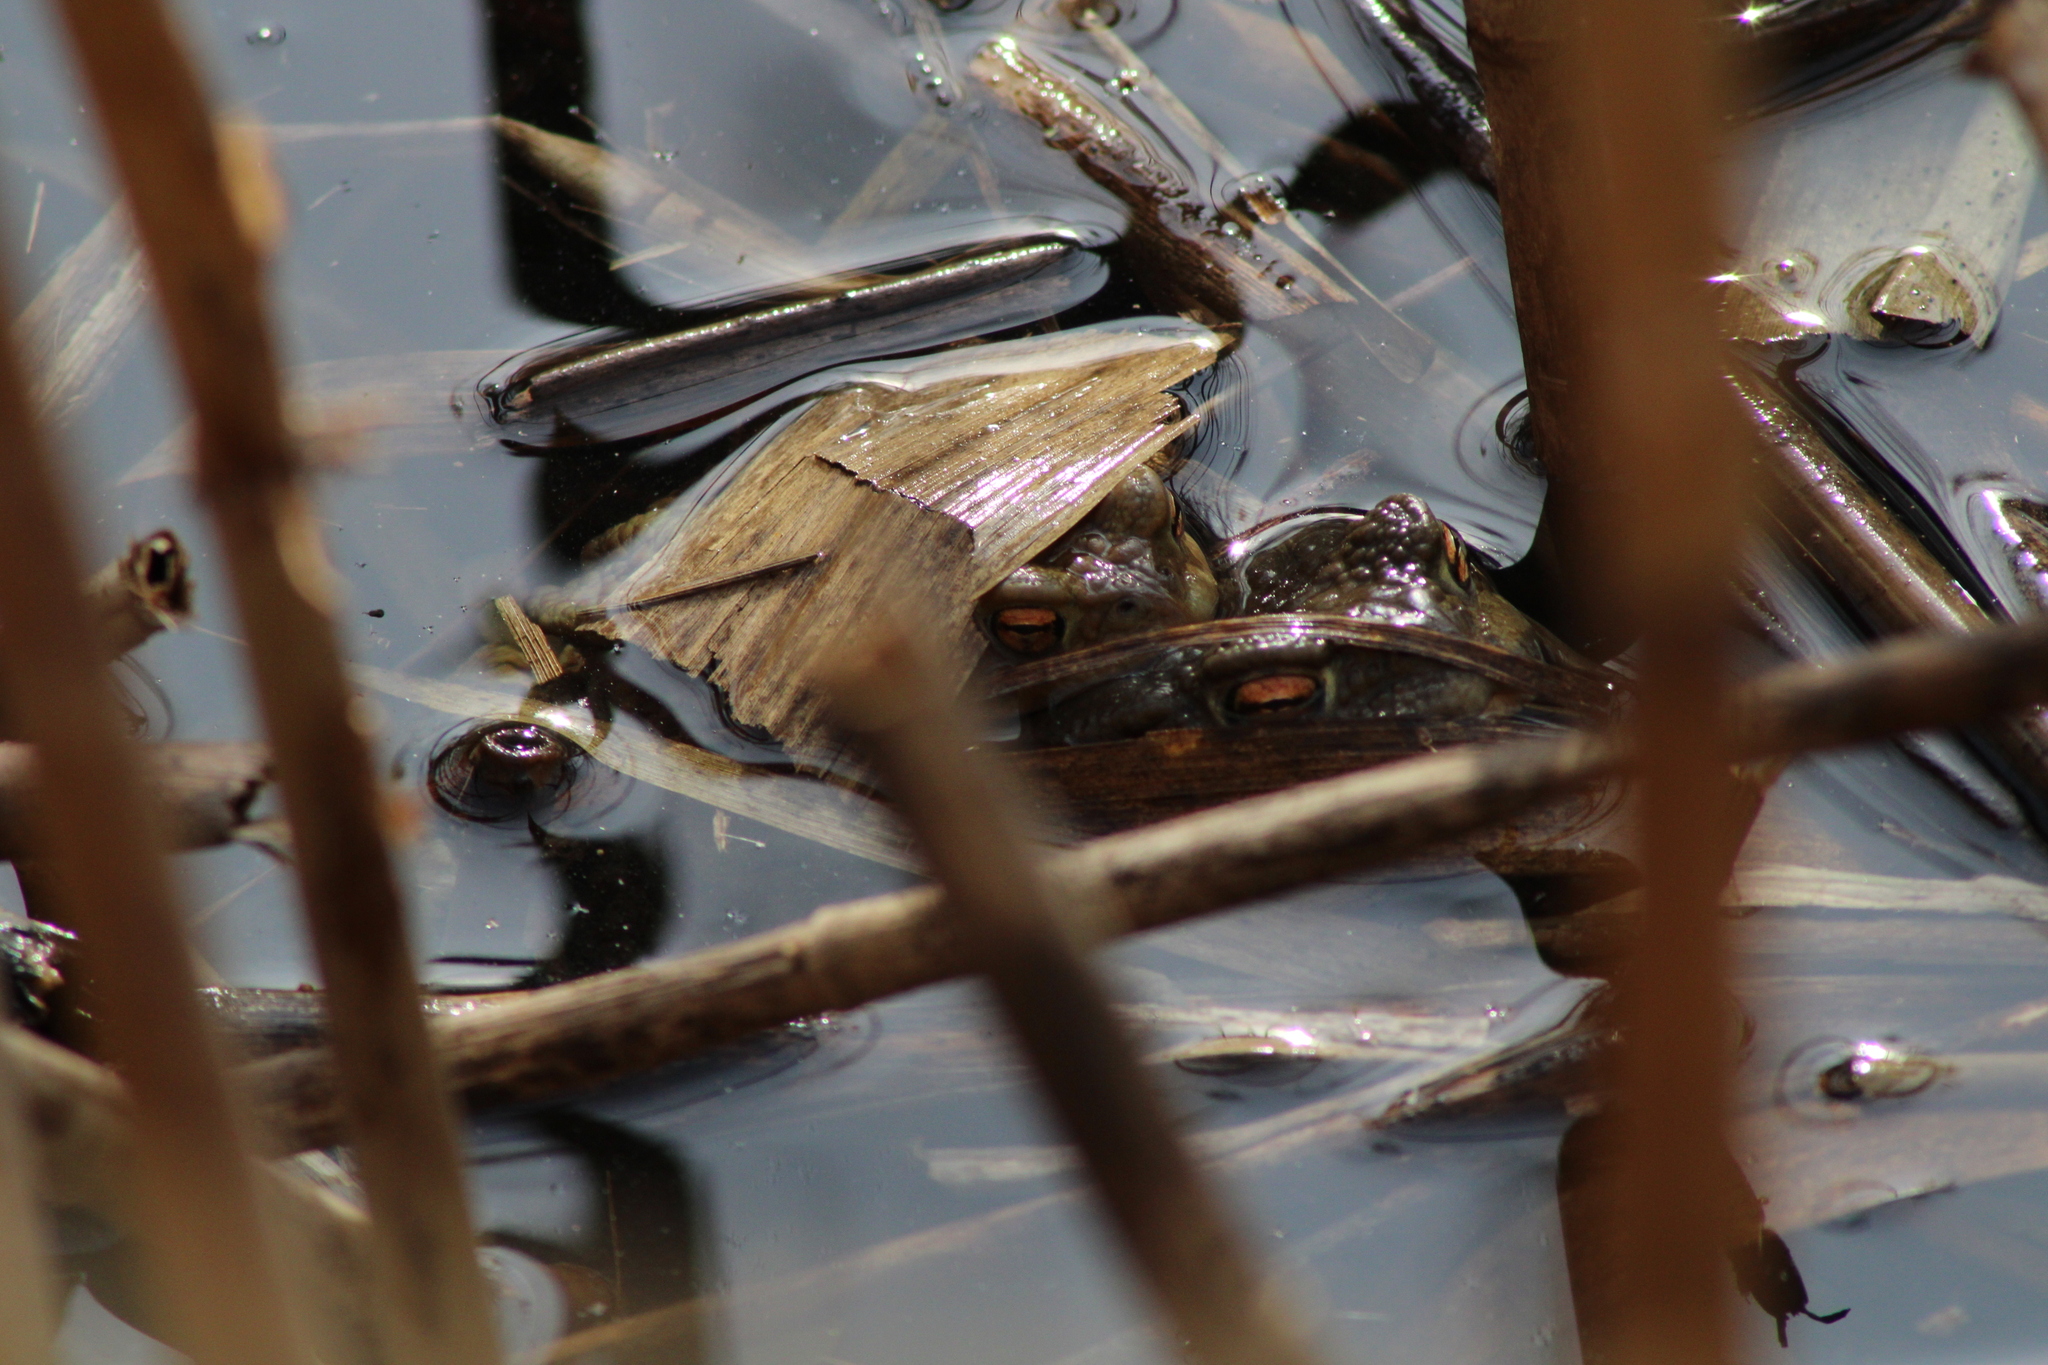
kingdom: Animalia
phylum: Chordata
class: Amphibia
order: Anura
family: Bufonidae
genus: Bufo
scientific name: Bufo bufo
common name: Common toad
